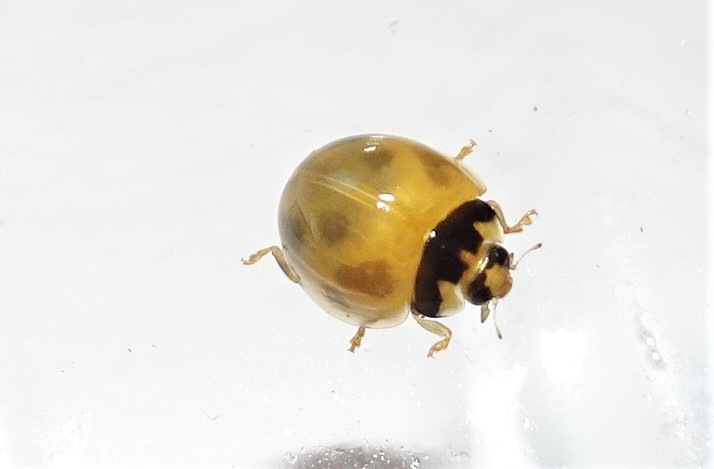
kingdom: Animalia
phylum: Arthropoda
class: Insecta
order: Coleoptera
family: Coccinellidae
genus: Coelophora
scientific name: Coelophora inaequalis
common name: Common australian lady beetle
